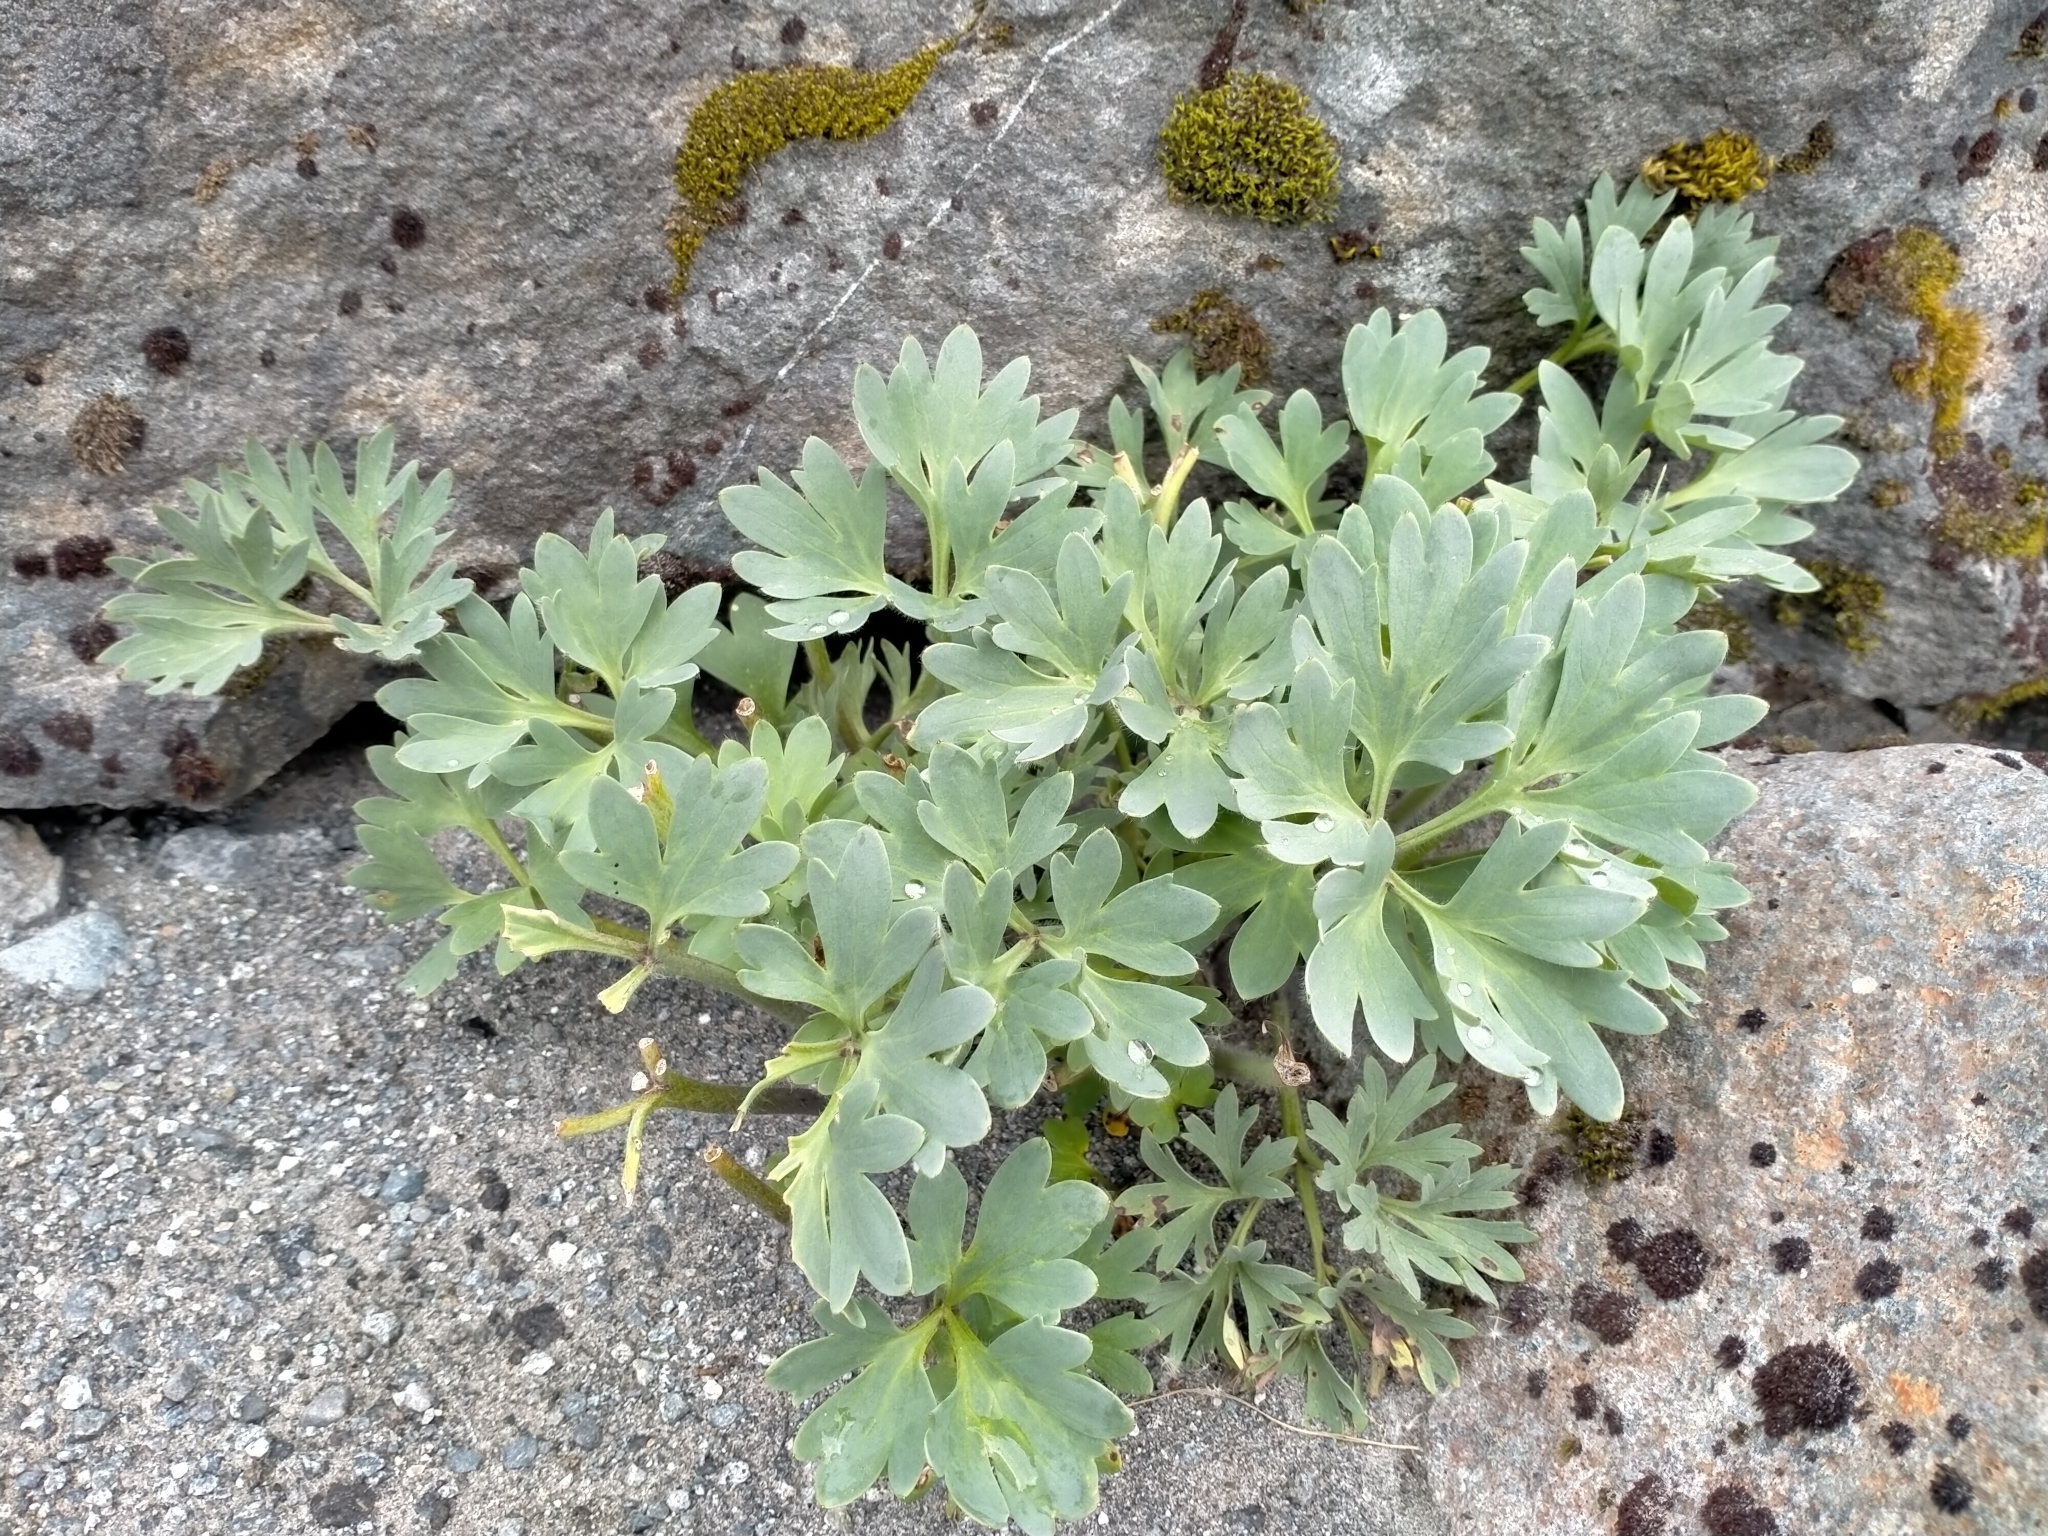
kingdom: Plantae
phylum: Tracheophyta
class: Magnoliopsida
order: Ranunculales
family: Ranunculaceae
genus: Ranunculus
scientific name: Ranunculus buchananii
